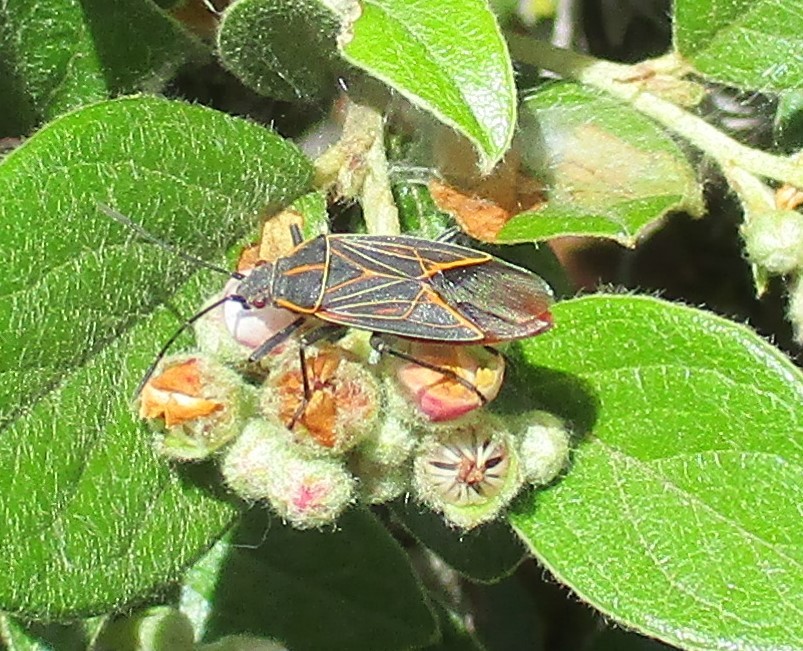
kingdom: Animalia
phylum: Arthropoda
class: Insecta
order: Hemiptera
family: Rhopalidae
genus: Boisea
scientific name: Boisea rubrolineata
